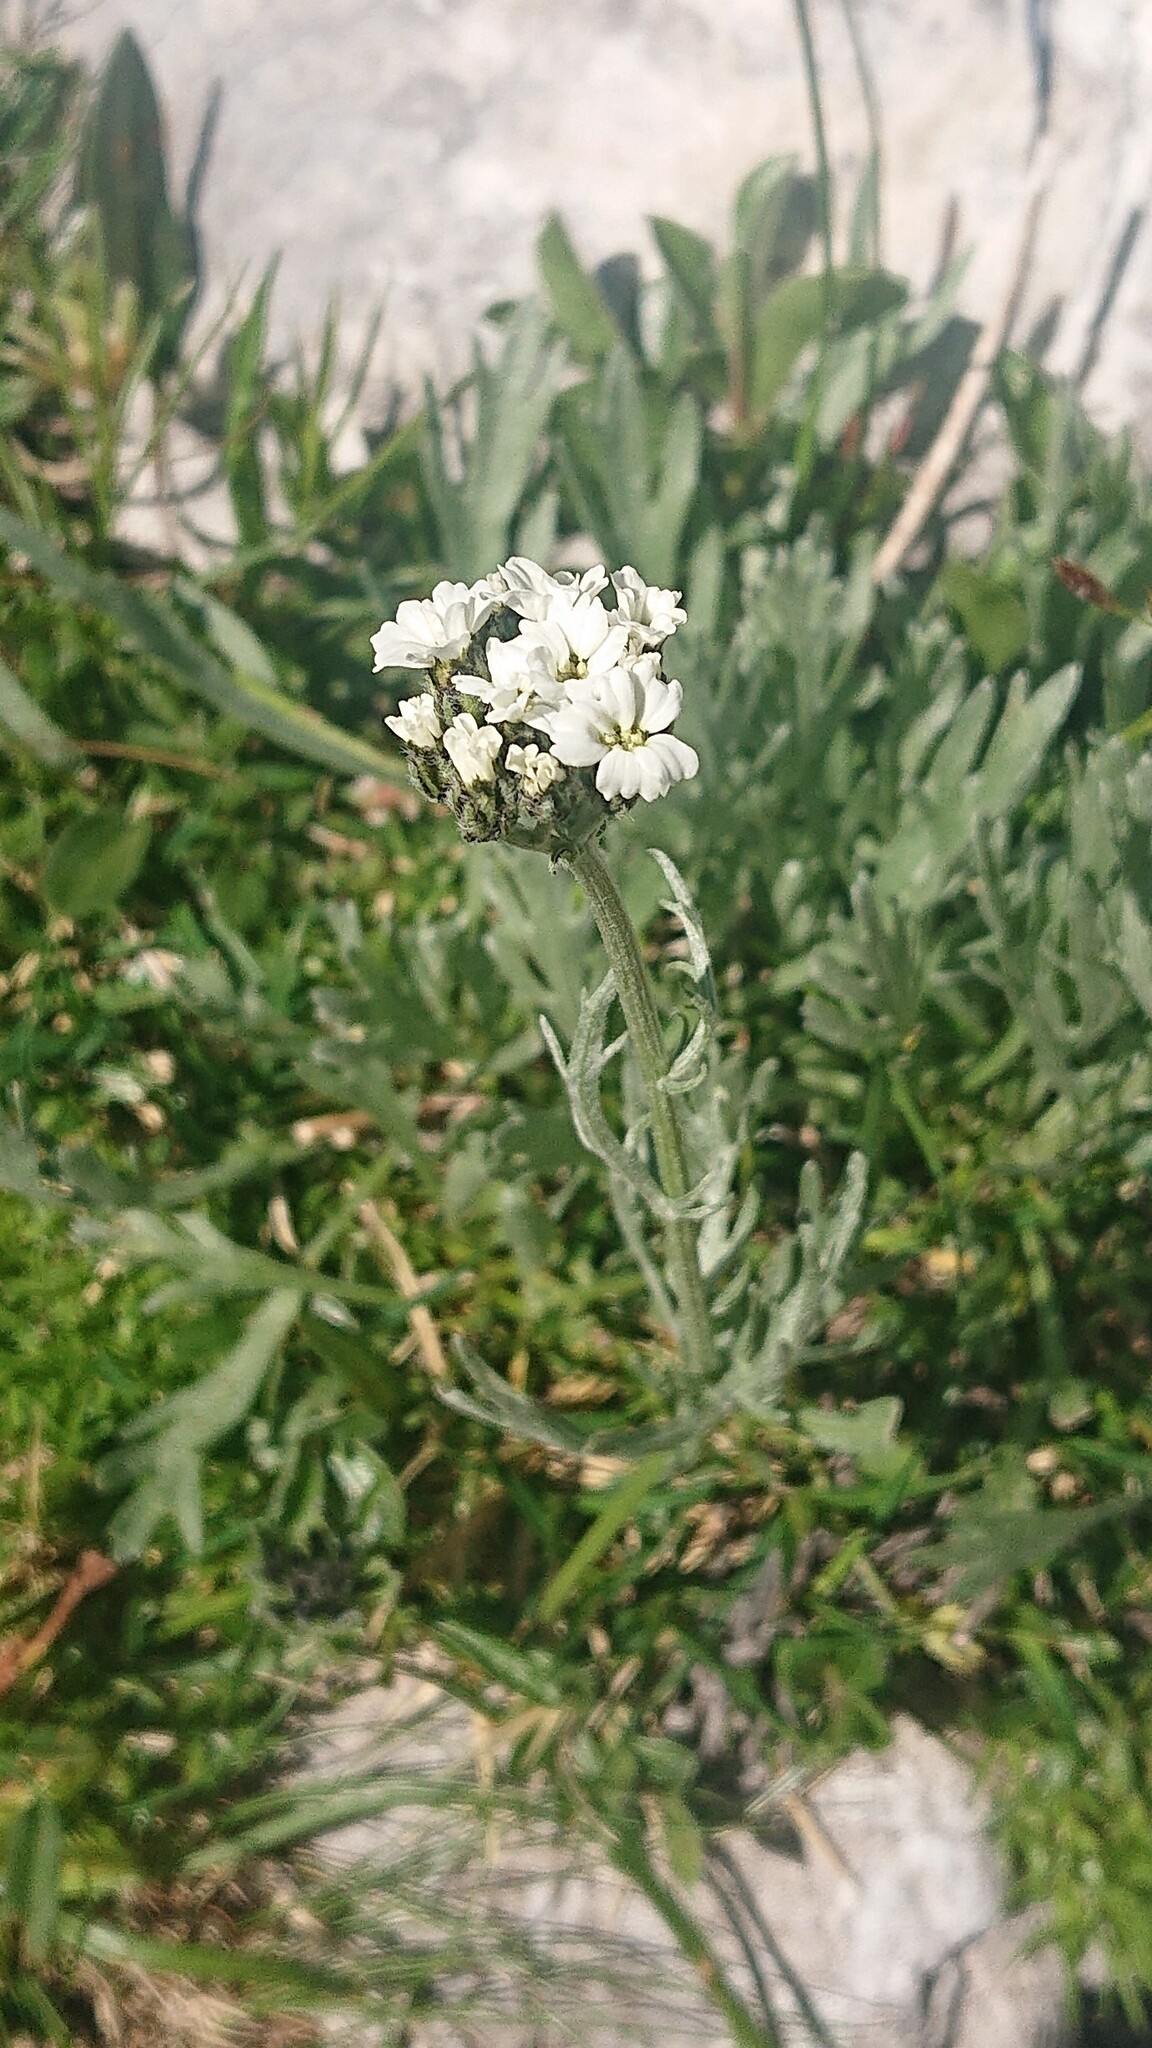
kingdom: Plantae
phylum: Tracheophyta
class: Magnoliopsida
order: Asterales
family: Asteraceae
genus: Achillea
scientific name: Achillea clavennae
